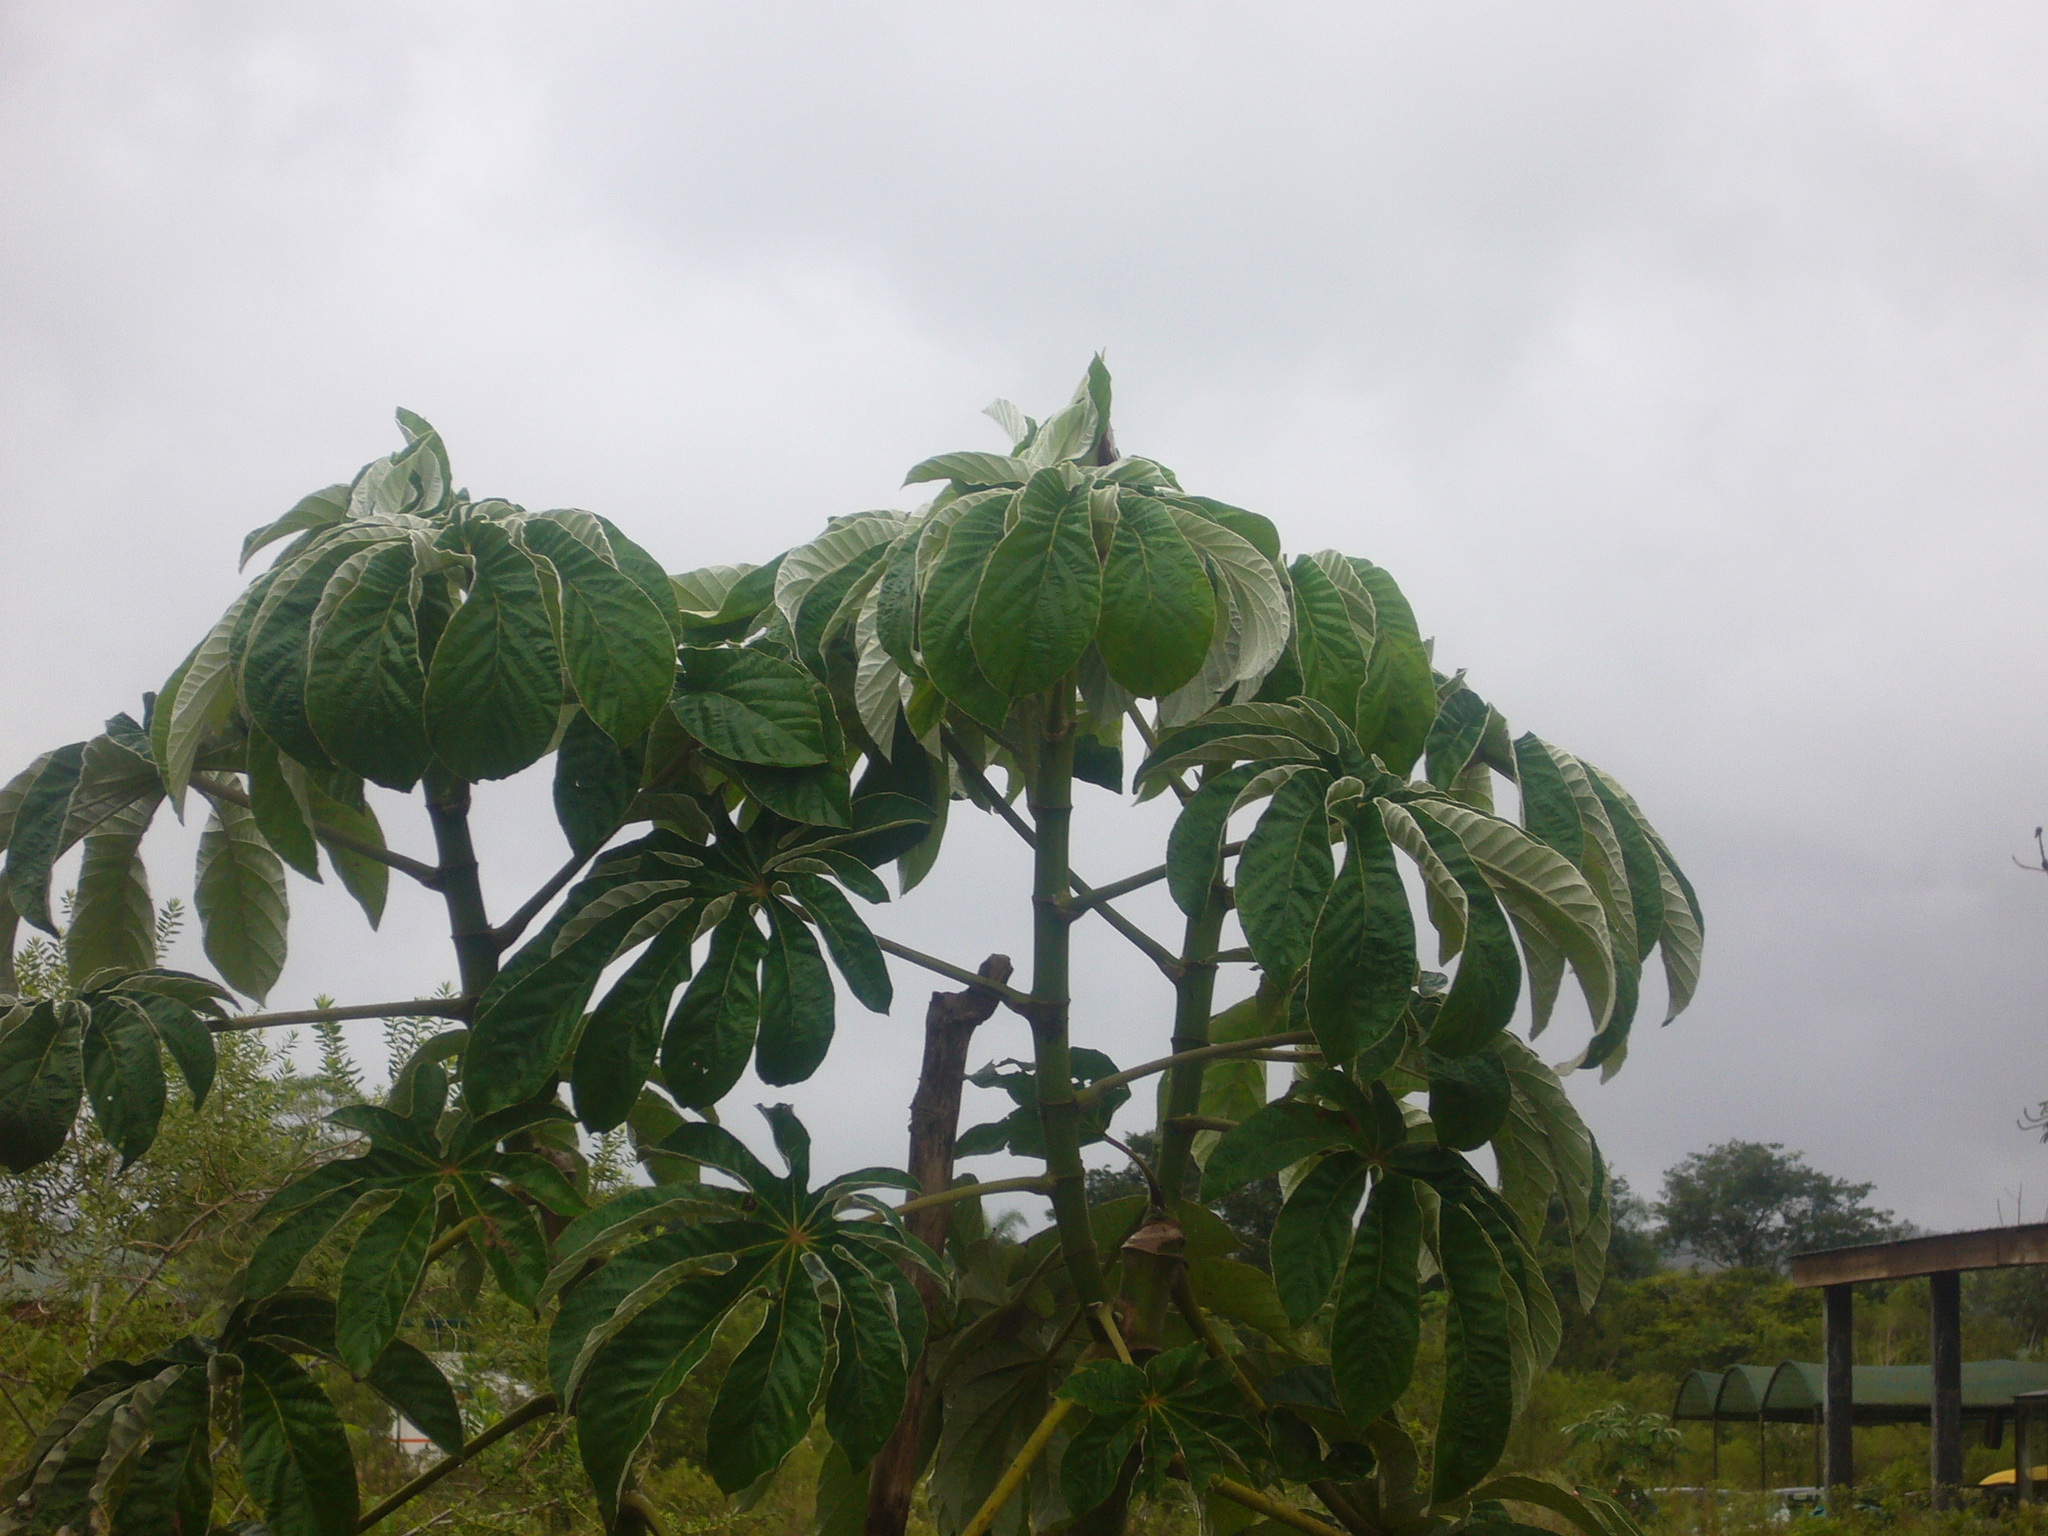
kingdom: Plantae
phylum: Tracheophyta
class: Magnoliopsida
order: Rosales
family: Urticaceae
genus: Cecropia
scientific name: Cecropia pachystachya
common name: Ambay pumpwood
